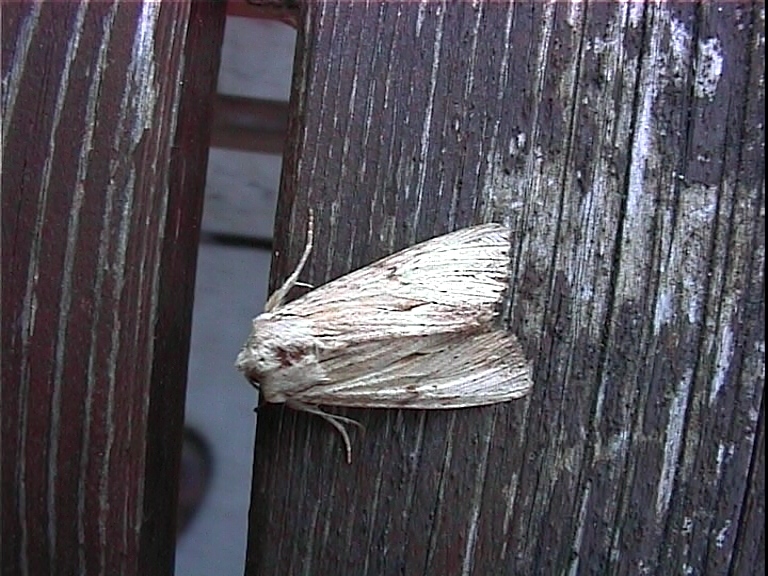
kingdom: Animalia
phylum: Arthropoda
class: Insecta
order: Lepidoptera
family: Noctuidae
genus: Apamea
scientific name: Apamea lithoxylaea
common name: Light arches
